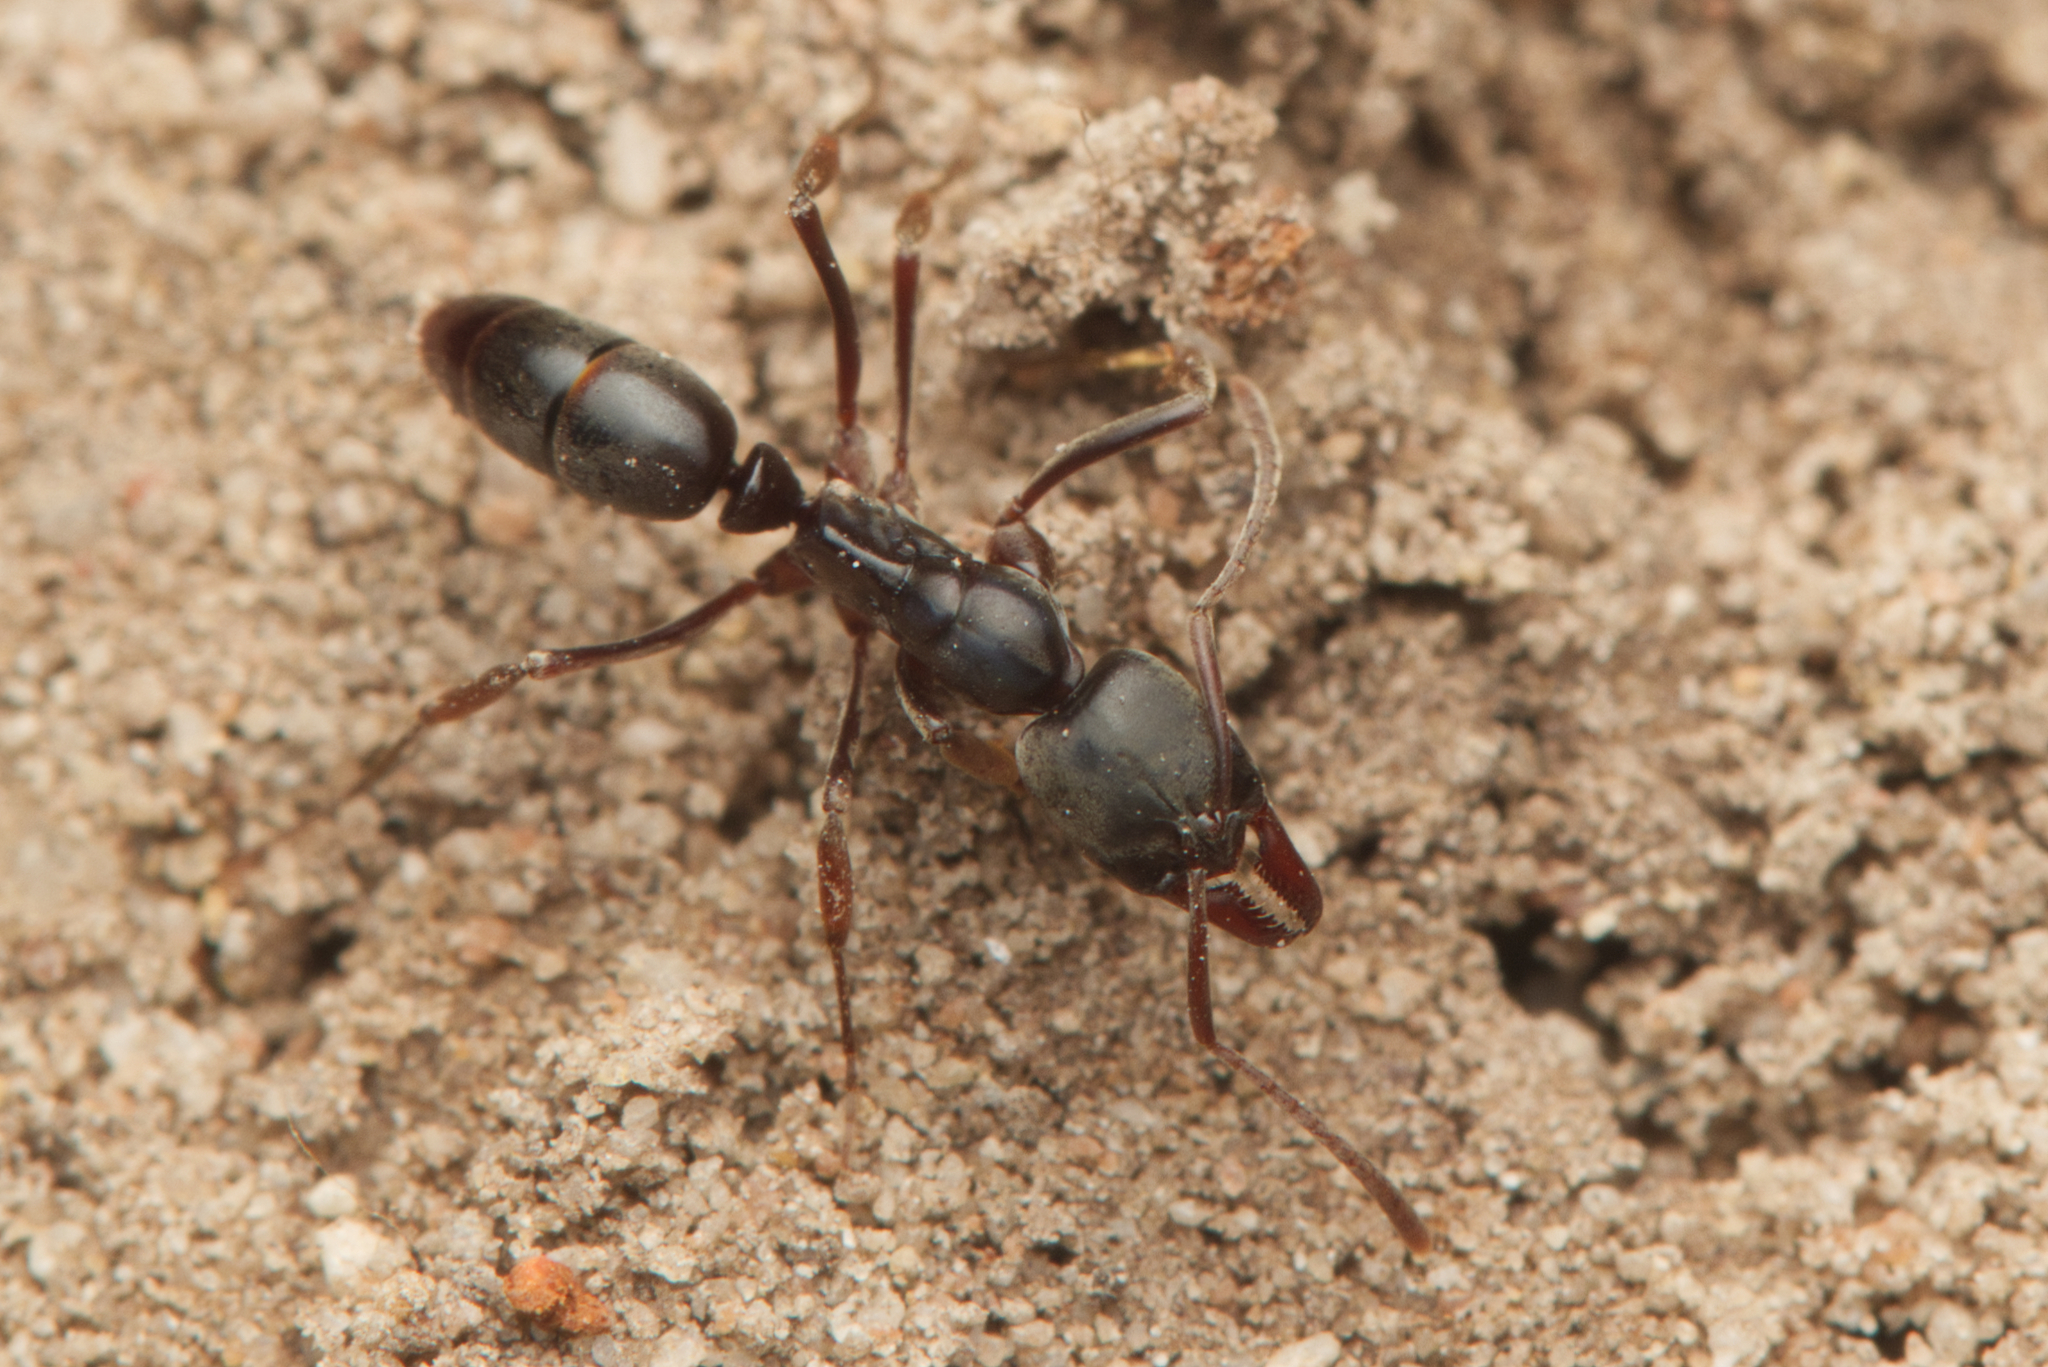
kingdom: Animalia
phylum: Arthropoda
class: Insecta
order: Hymenoptera
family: Formicidae
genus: Mesoponera
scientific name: Mesoponera
